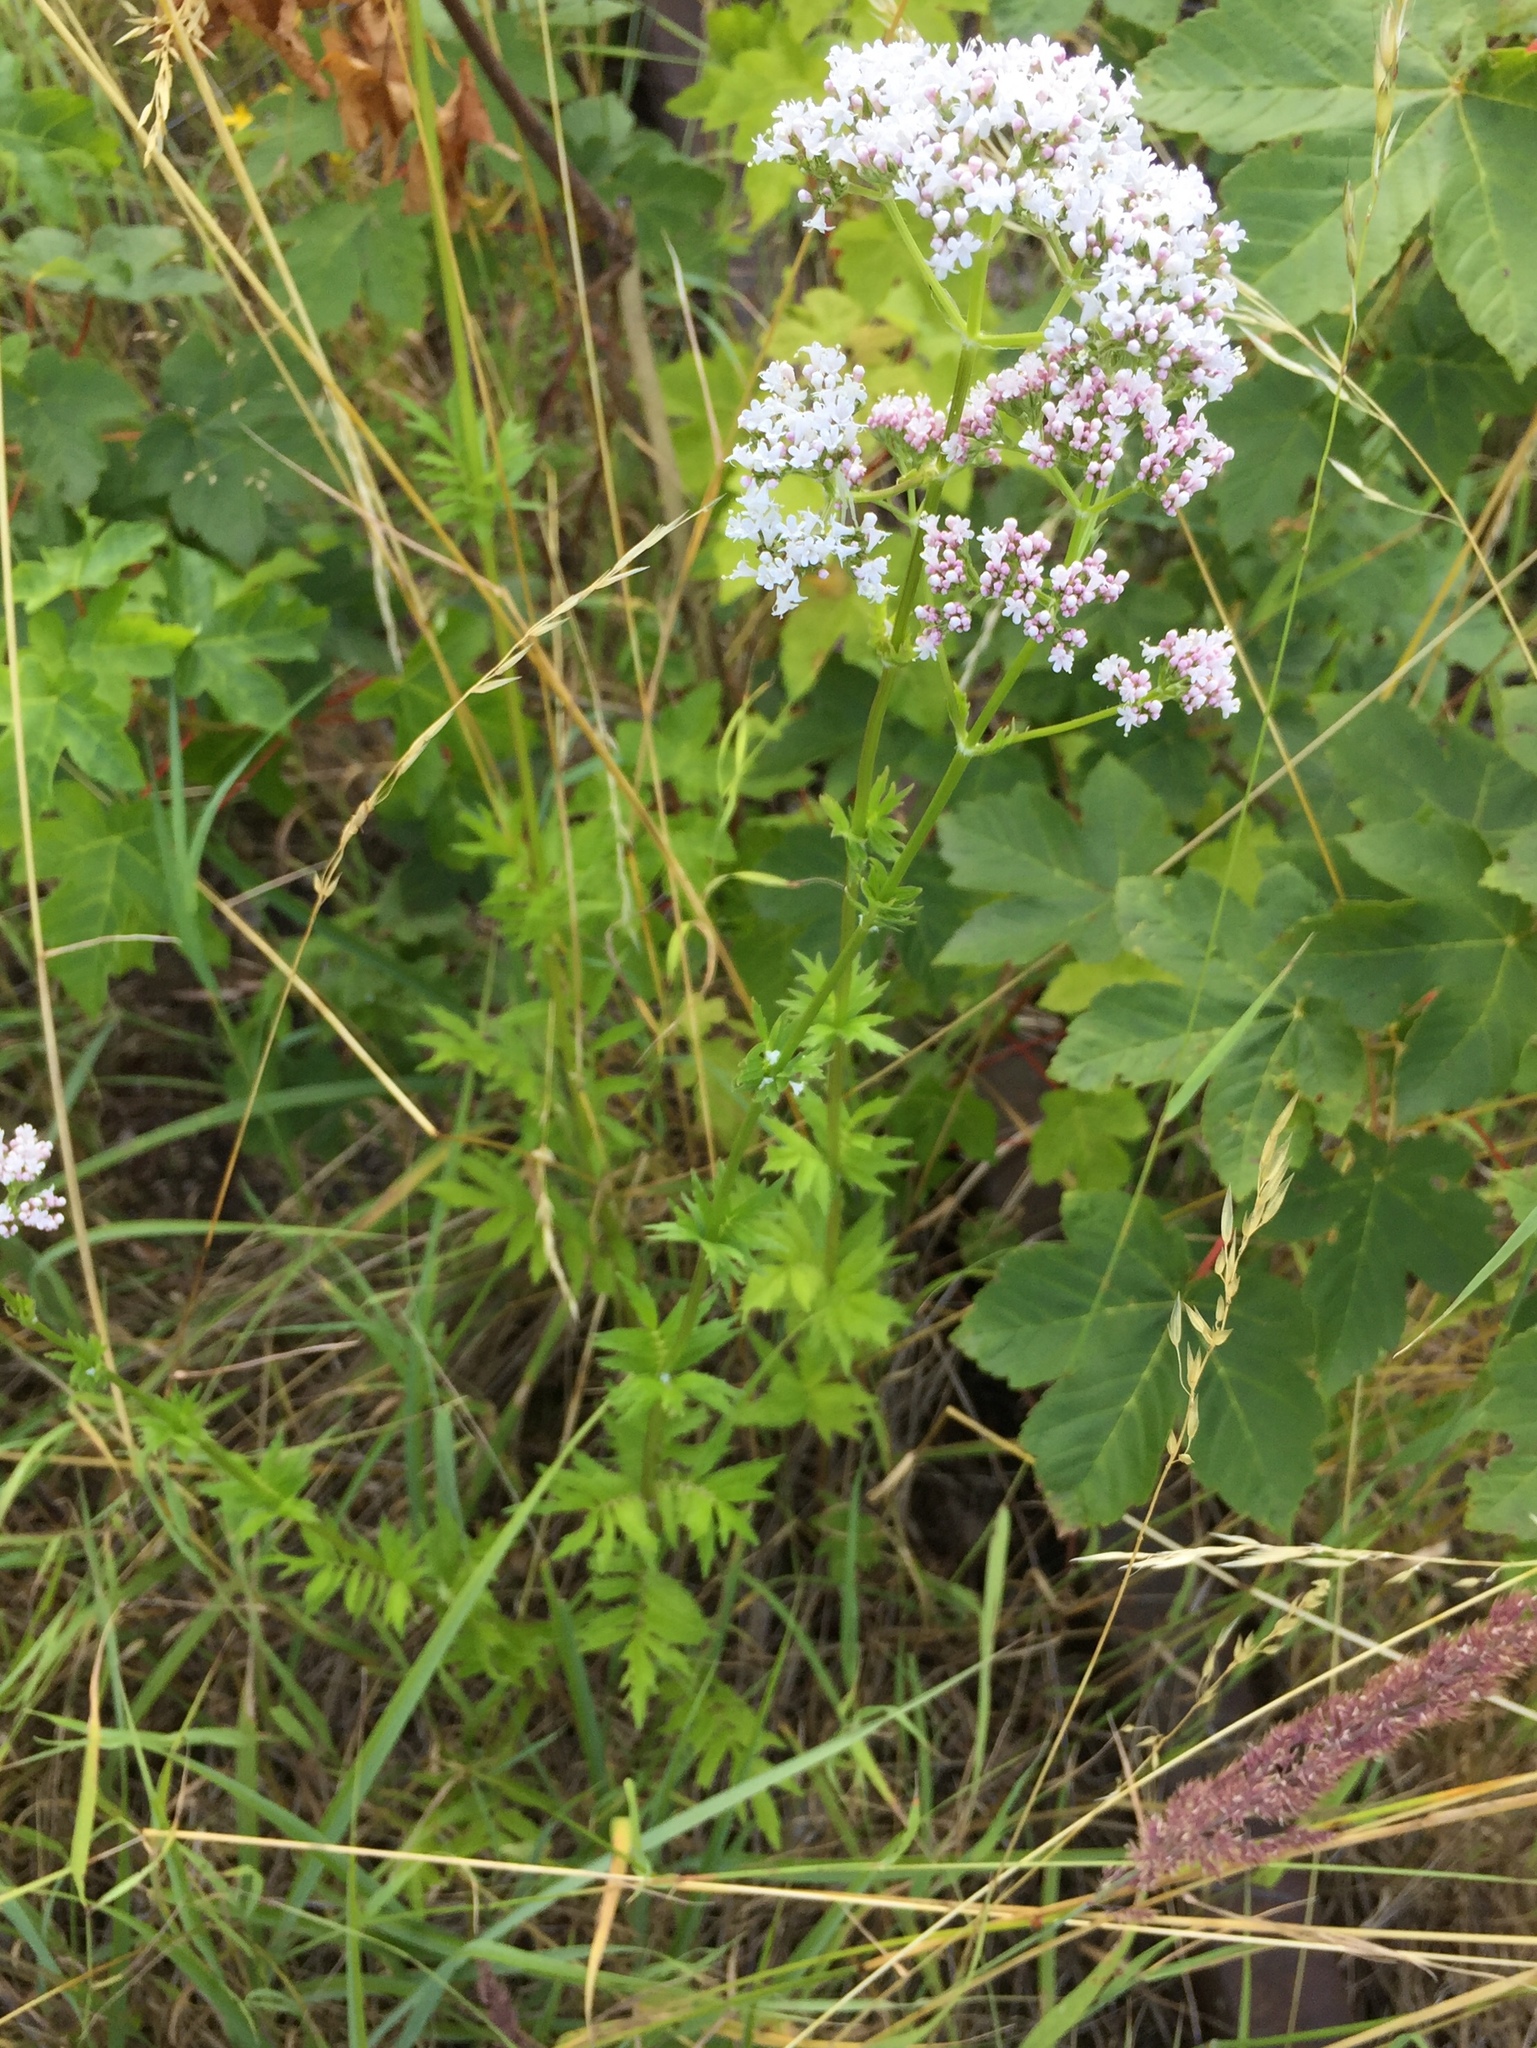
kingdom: Plantae
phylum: Tracheophyta
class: Magnoliopsida
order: Dipsacales
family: Caprifoliaceae
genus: Valeriana
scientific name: Valeriana officinalis
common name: Common valerian
